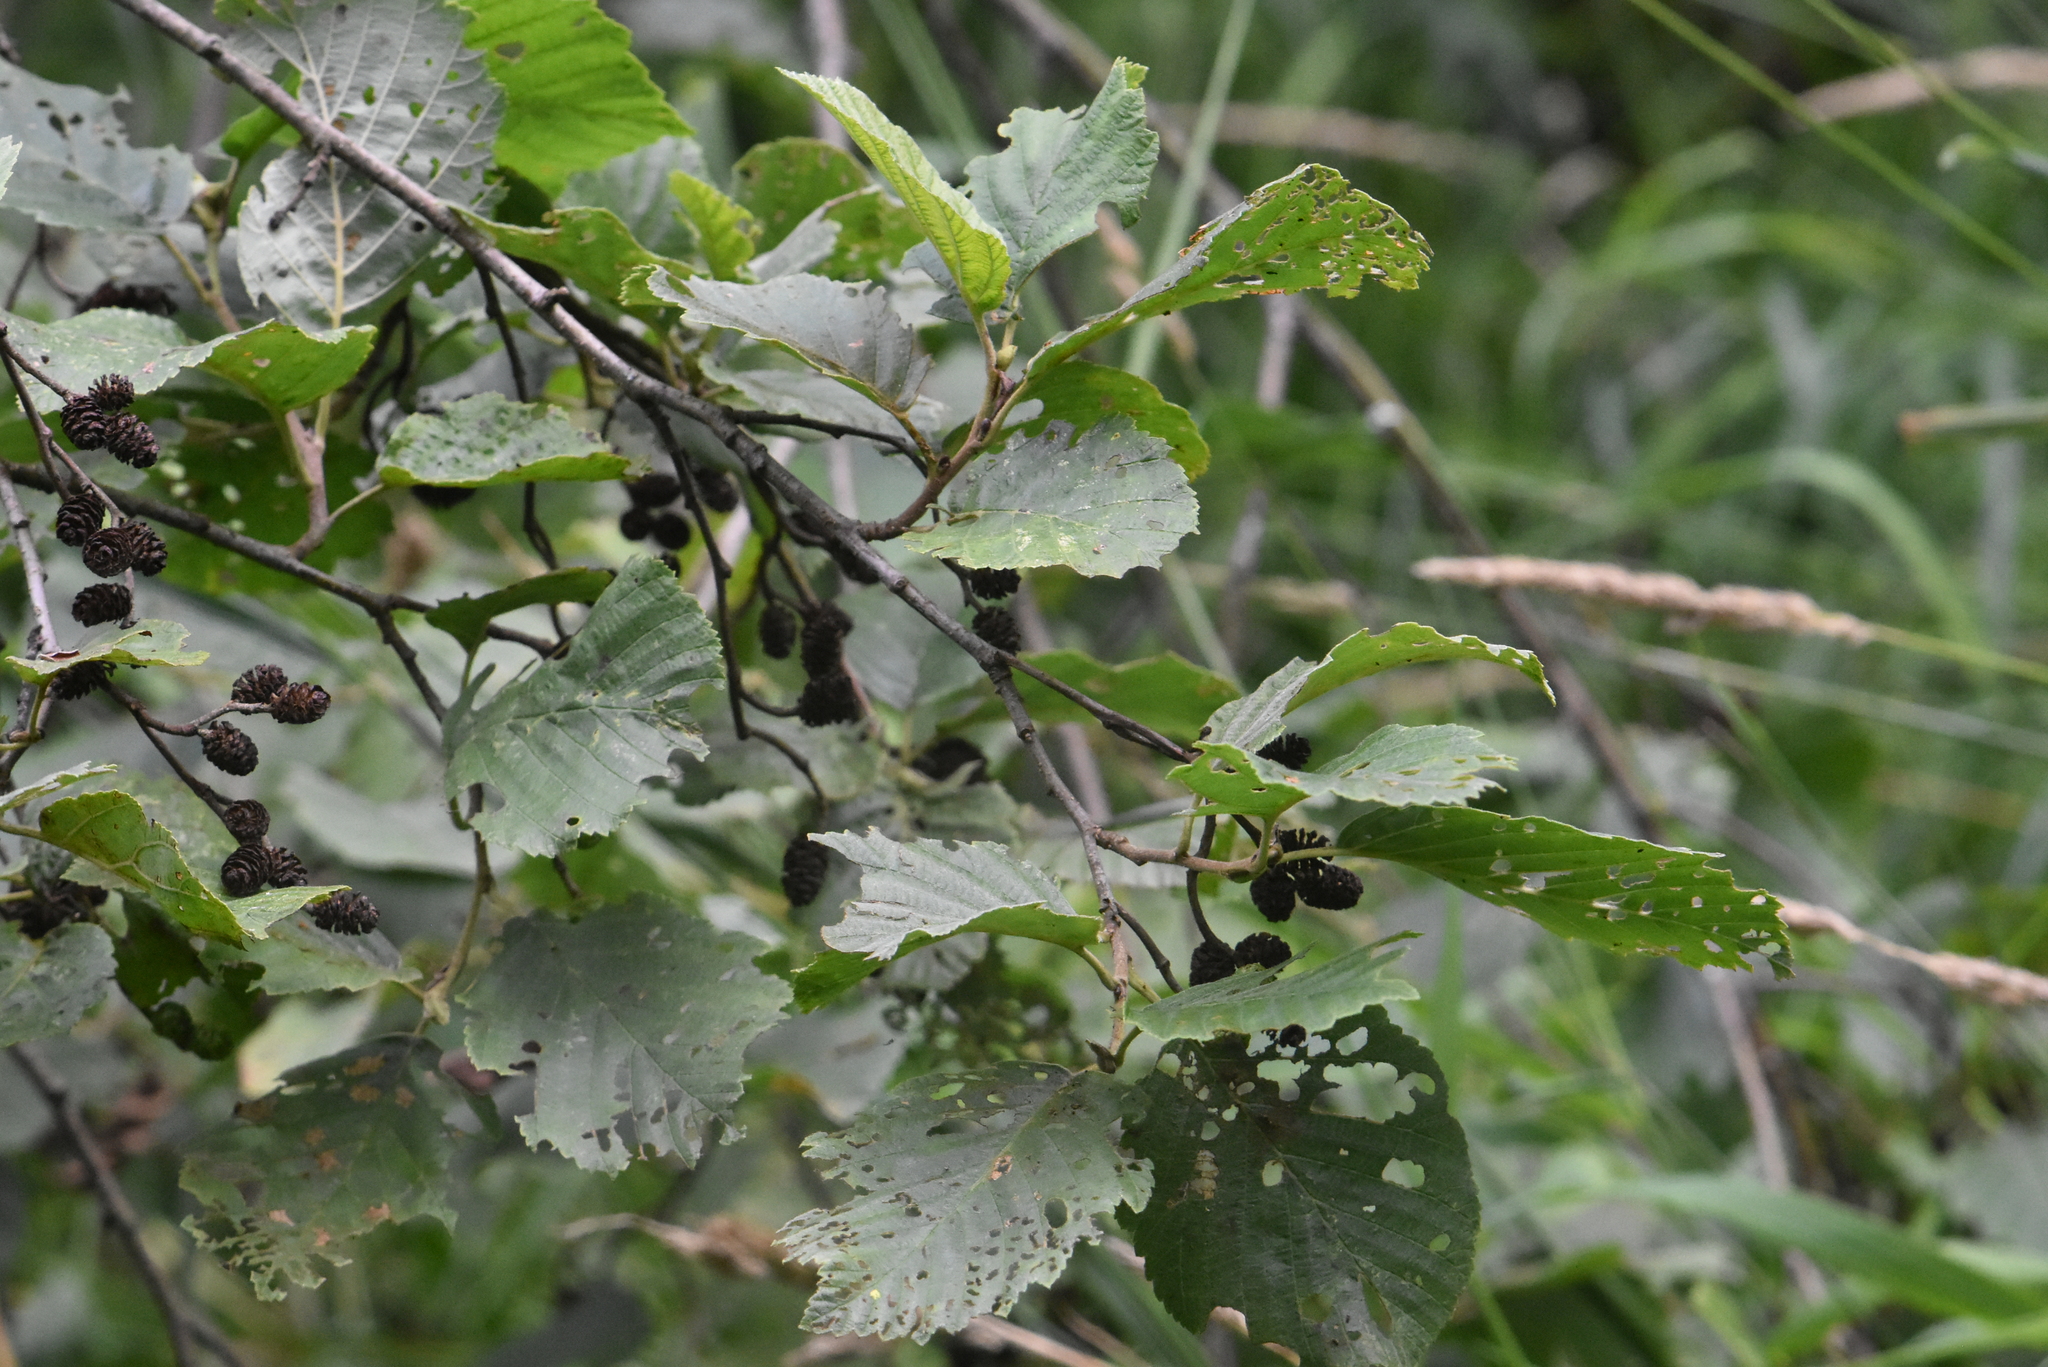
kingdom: Plantae
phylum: Tracheophyta
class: Magnoliopsida
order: Fagales
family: Betulaceae
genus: Alnus
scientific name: Alnus incana
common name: Grey alder
